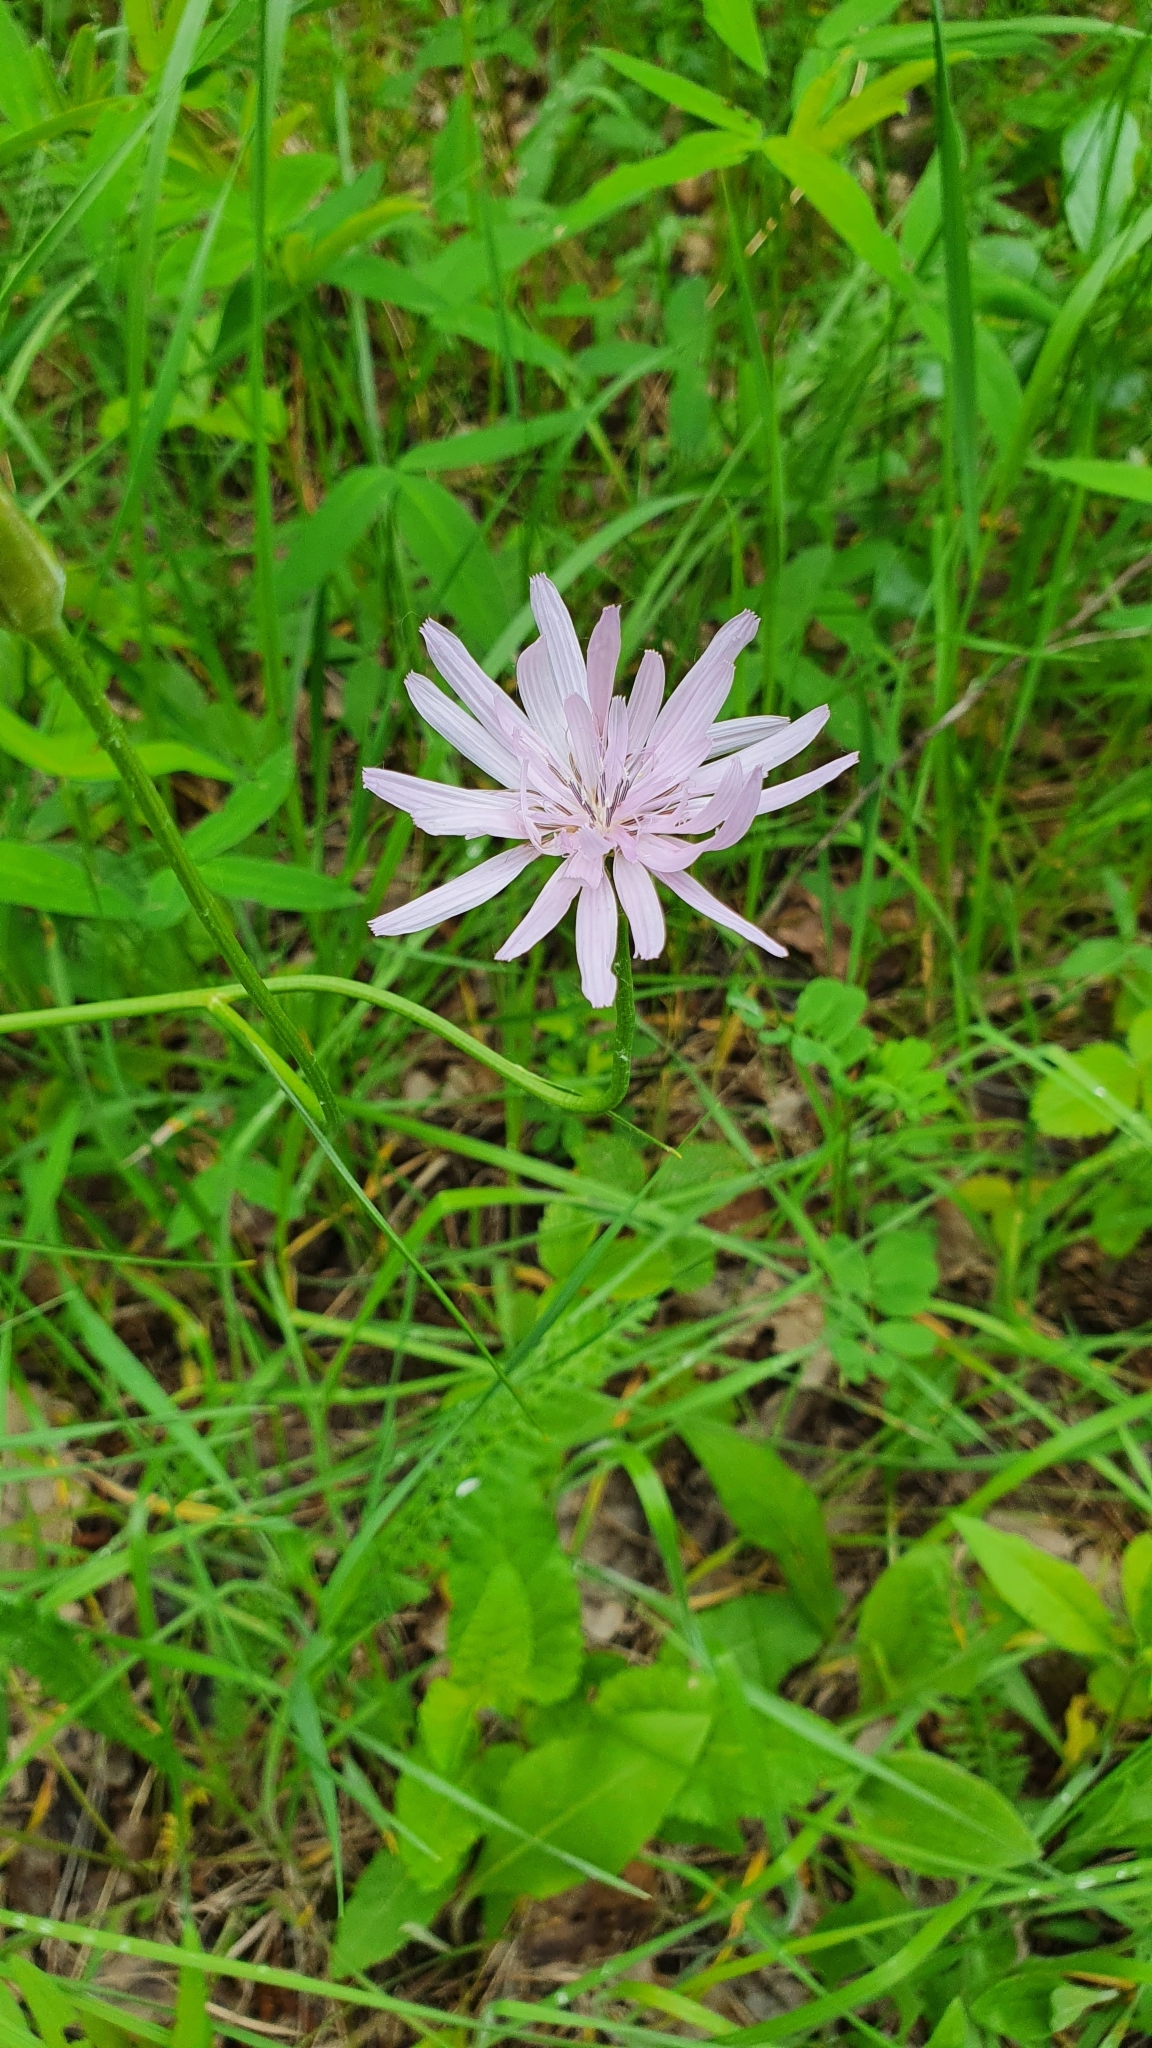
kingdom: Plantae
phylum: Tracheophyta
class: Magnoliopsida
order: Asterales
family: Asteraceae
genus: Scorzonera
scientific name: Scorzonera purpurea
